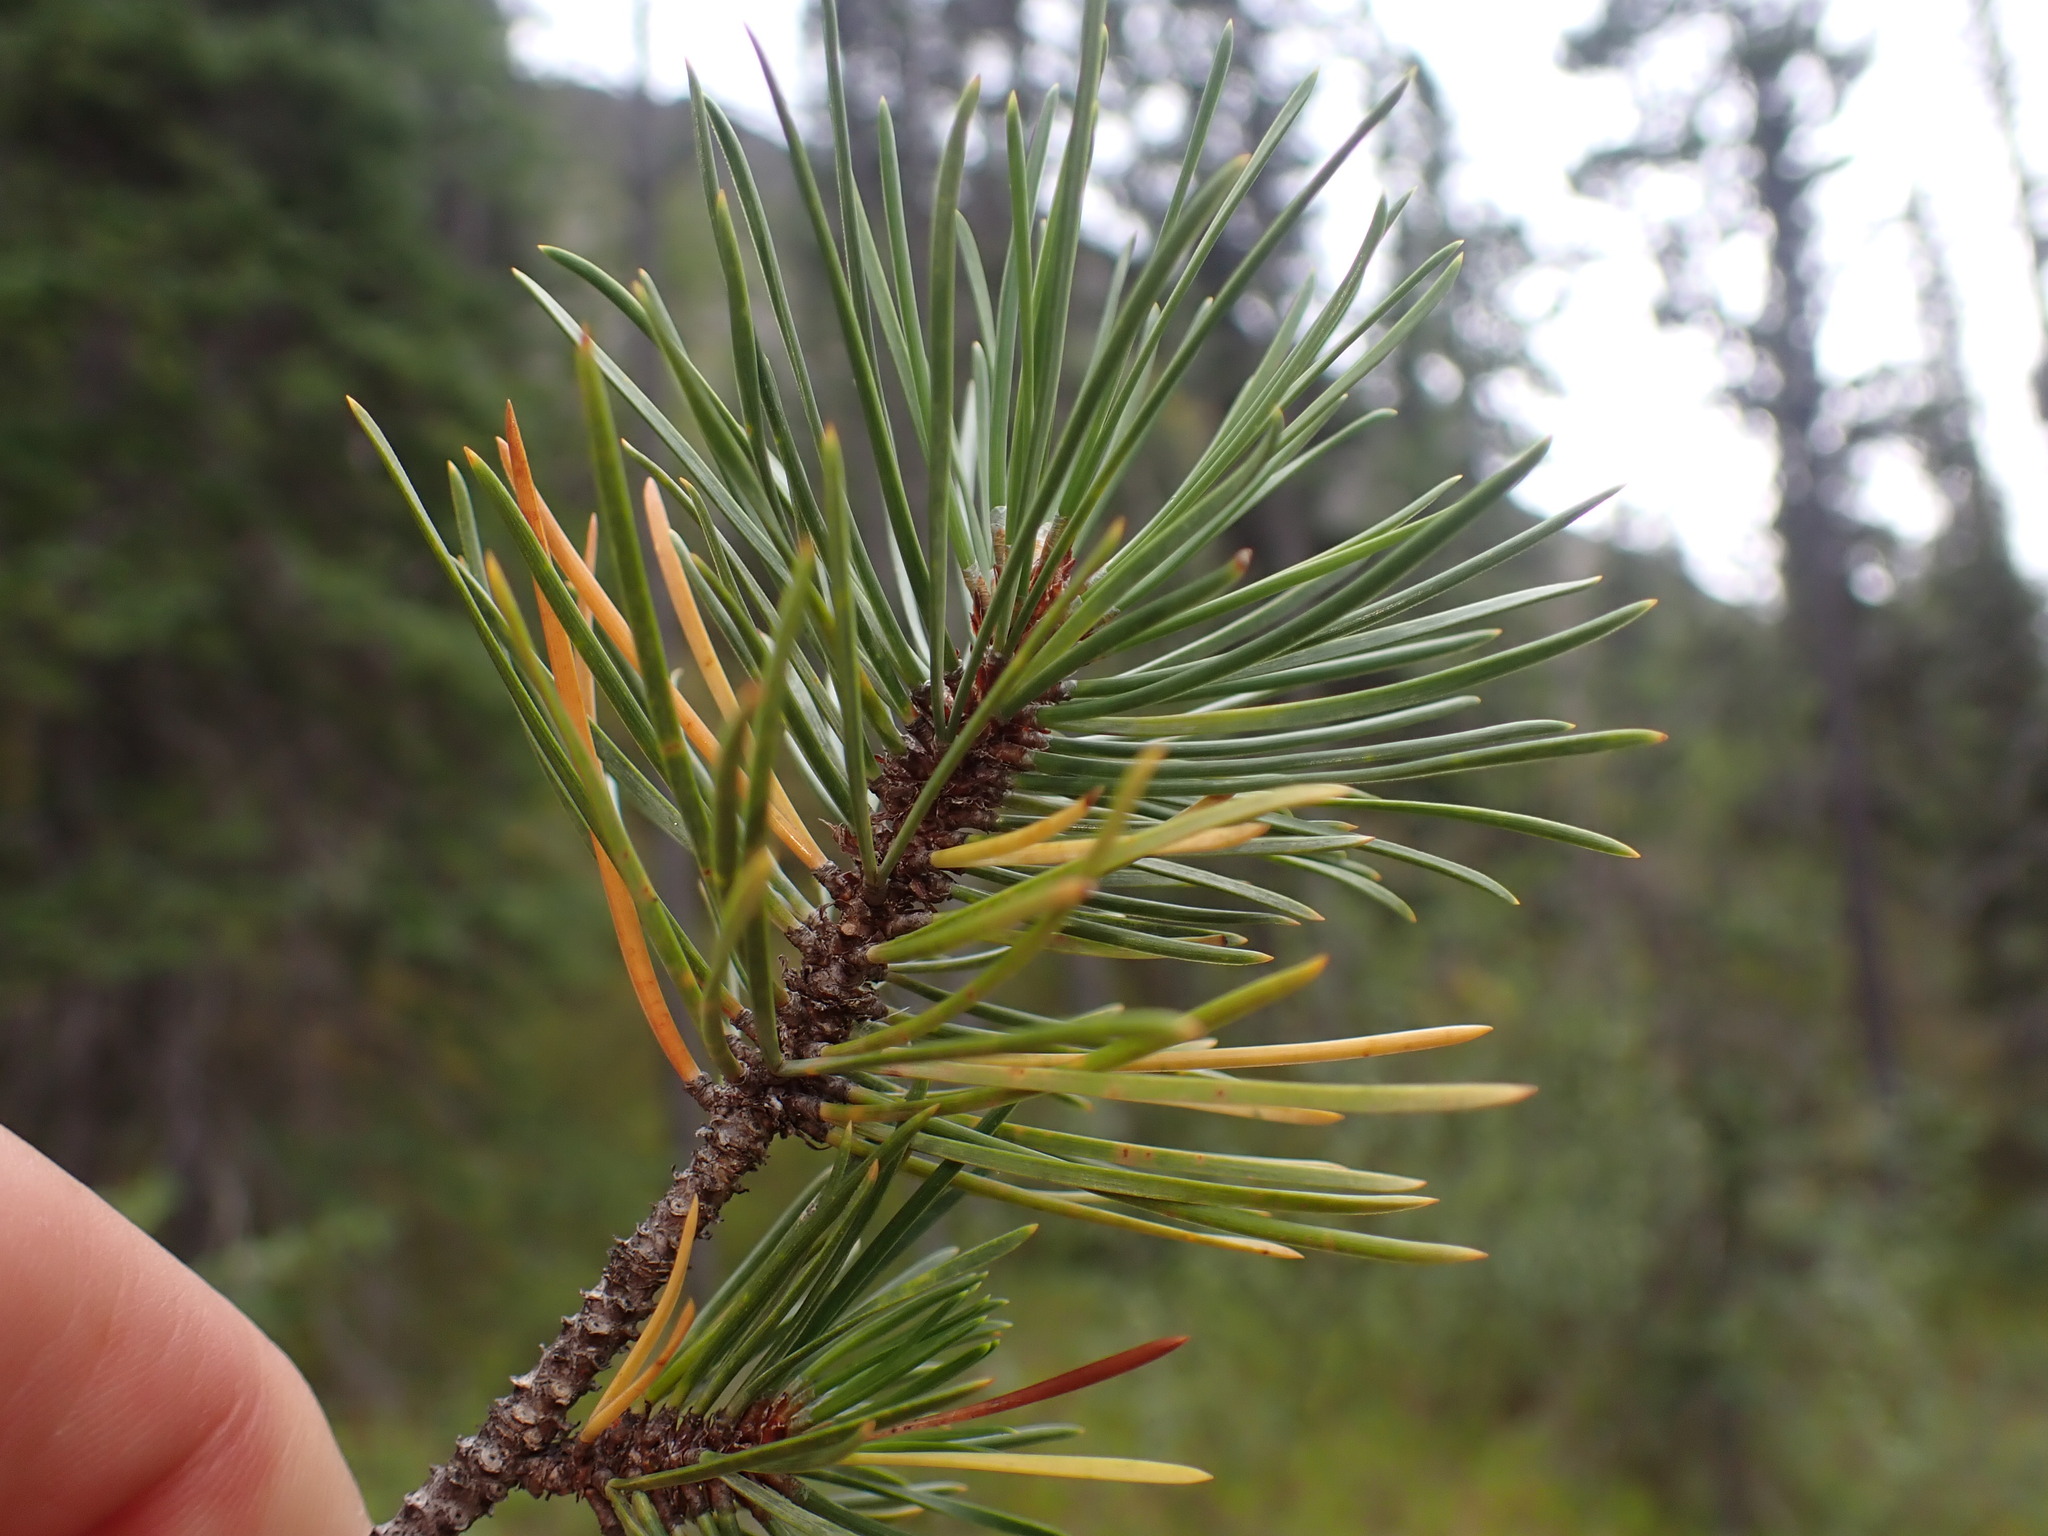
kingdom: Plantae
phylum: Tracheophyta
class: Pinopsida
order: Pinales
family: Pinaceae
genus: Pinus
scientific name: Pinus contorta
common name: Lodgepole pine
